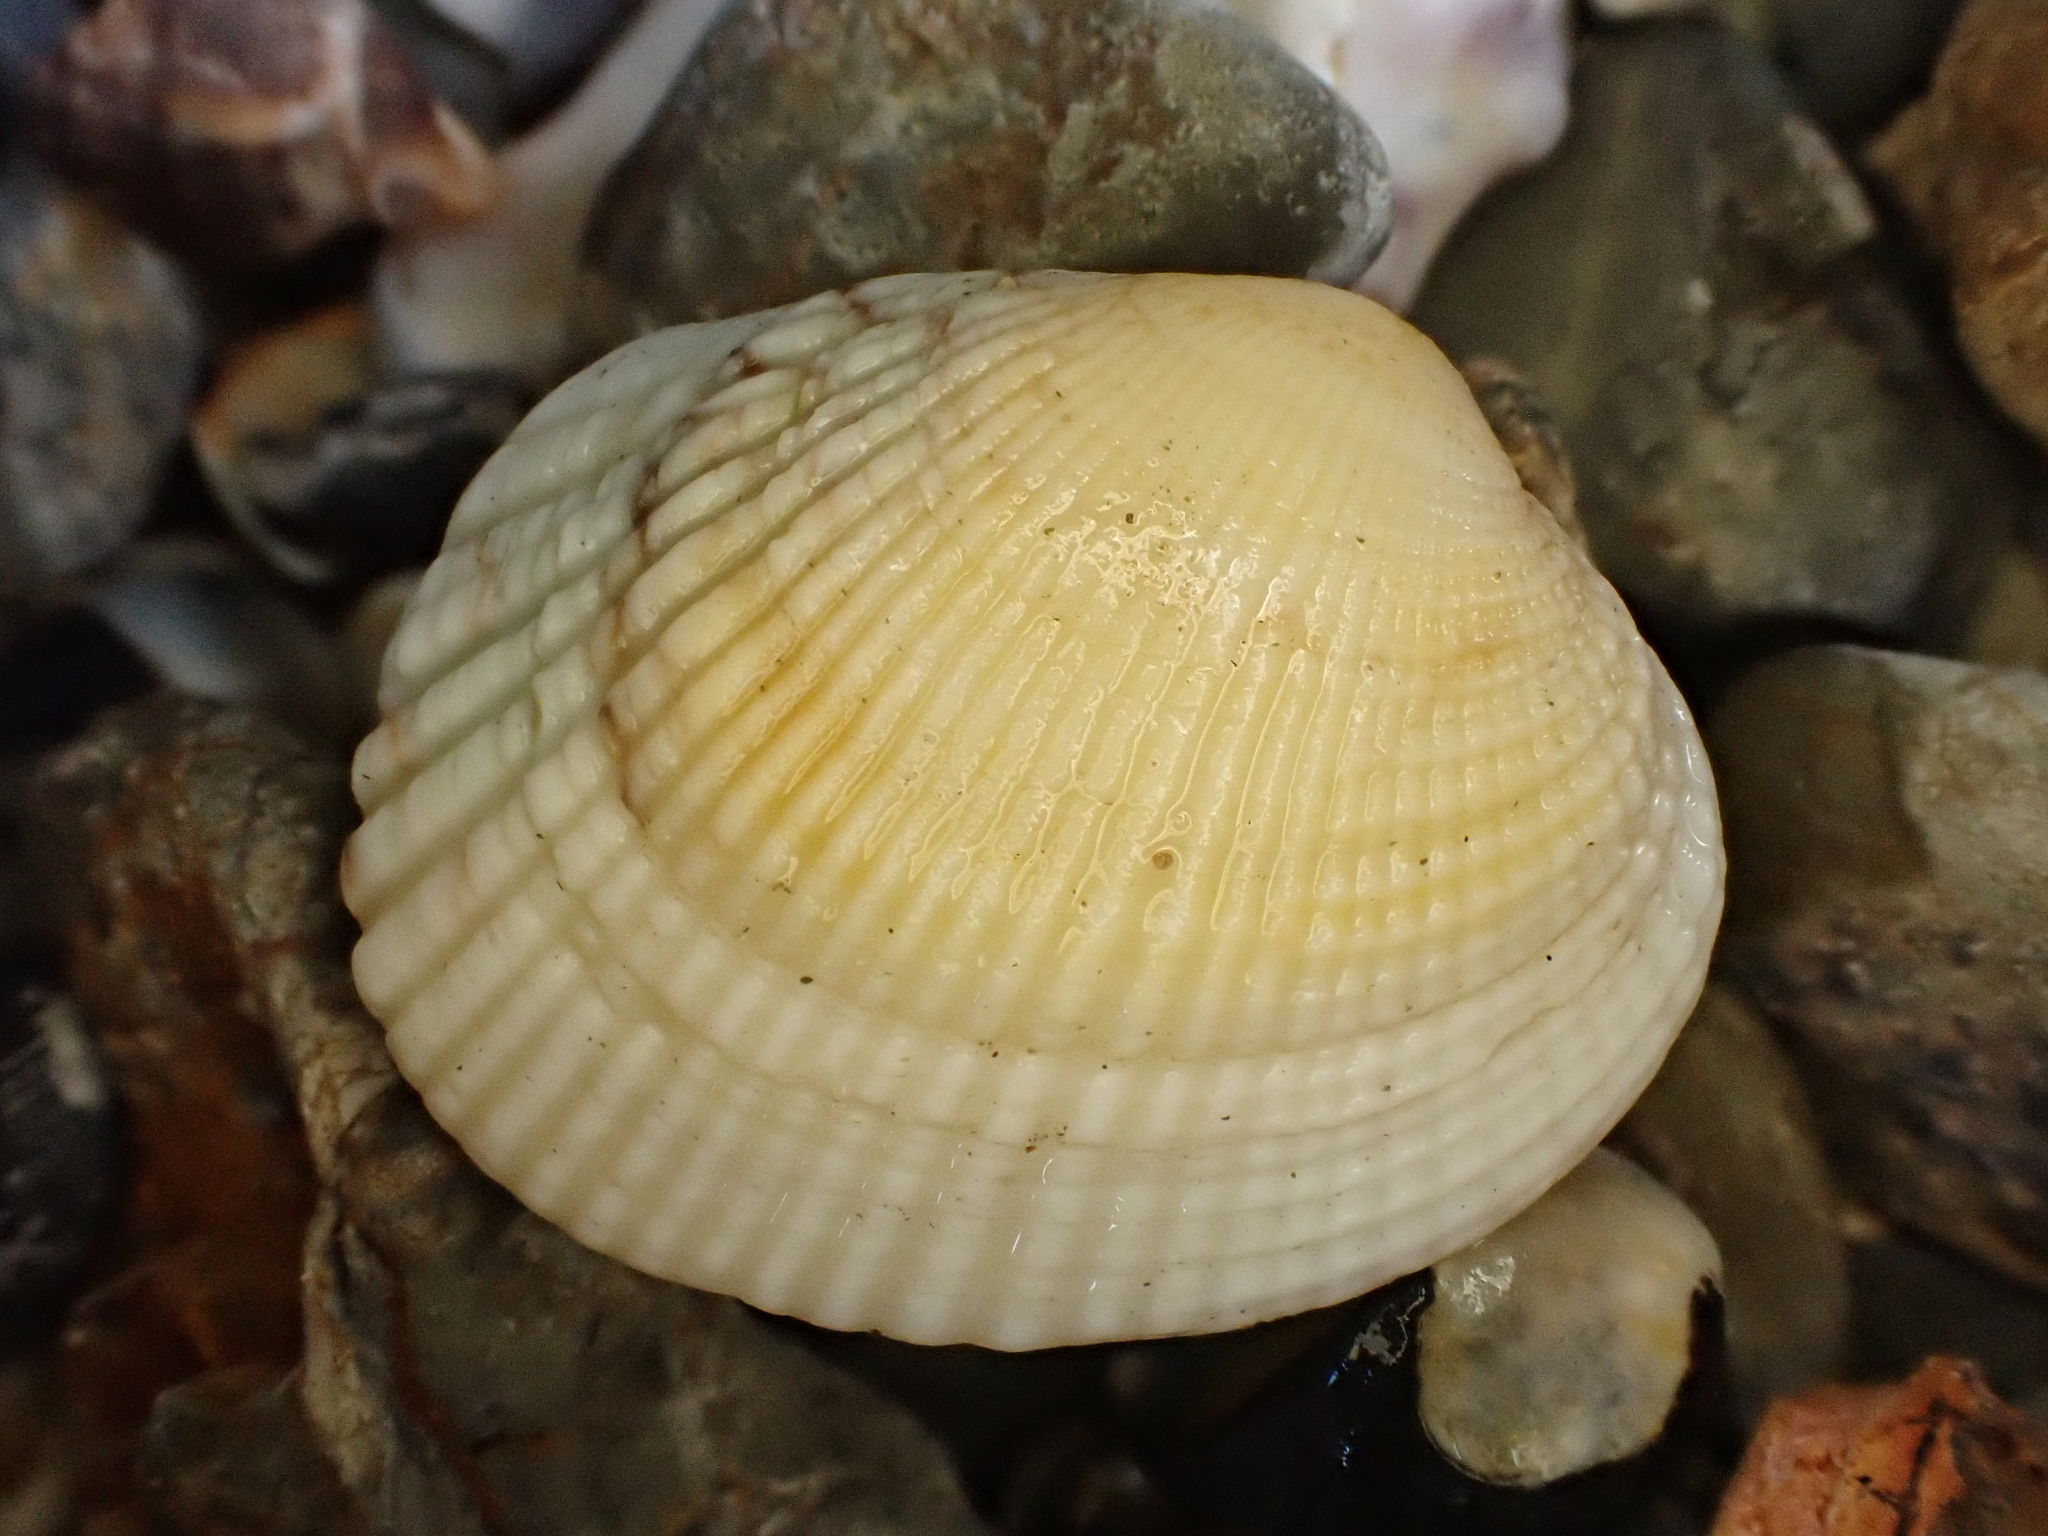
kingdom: Animalia
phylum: Mollusca
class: Bivalvia
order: Venerida
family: Veneridae
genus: Leukoma
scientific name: Leukoma crassicosta
